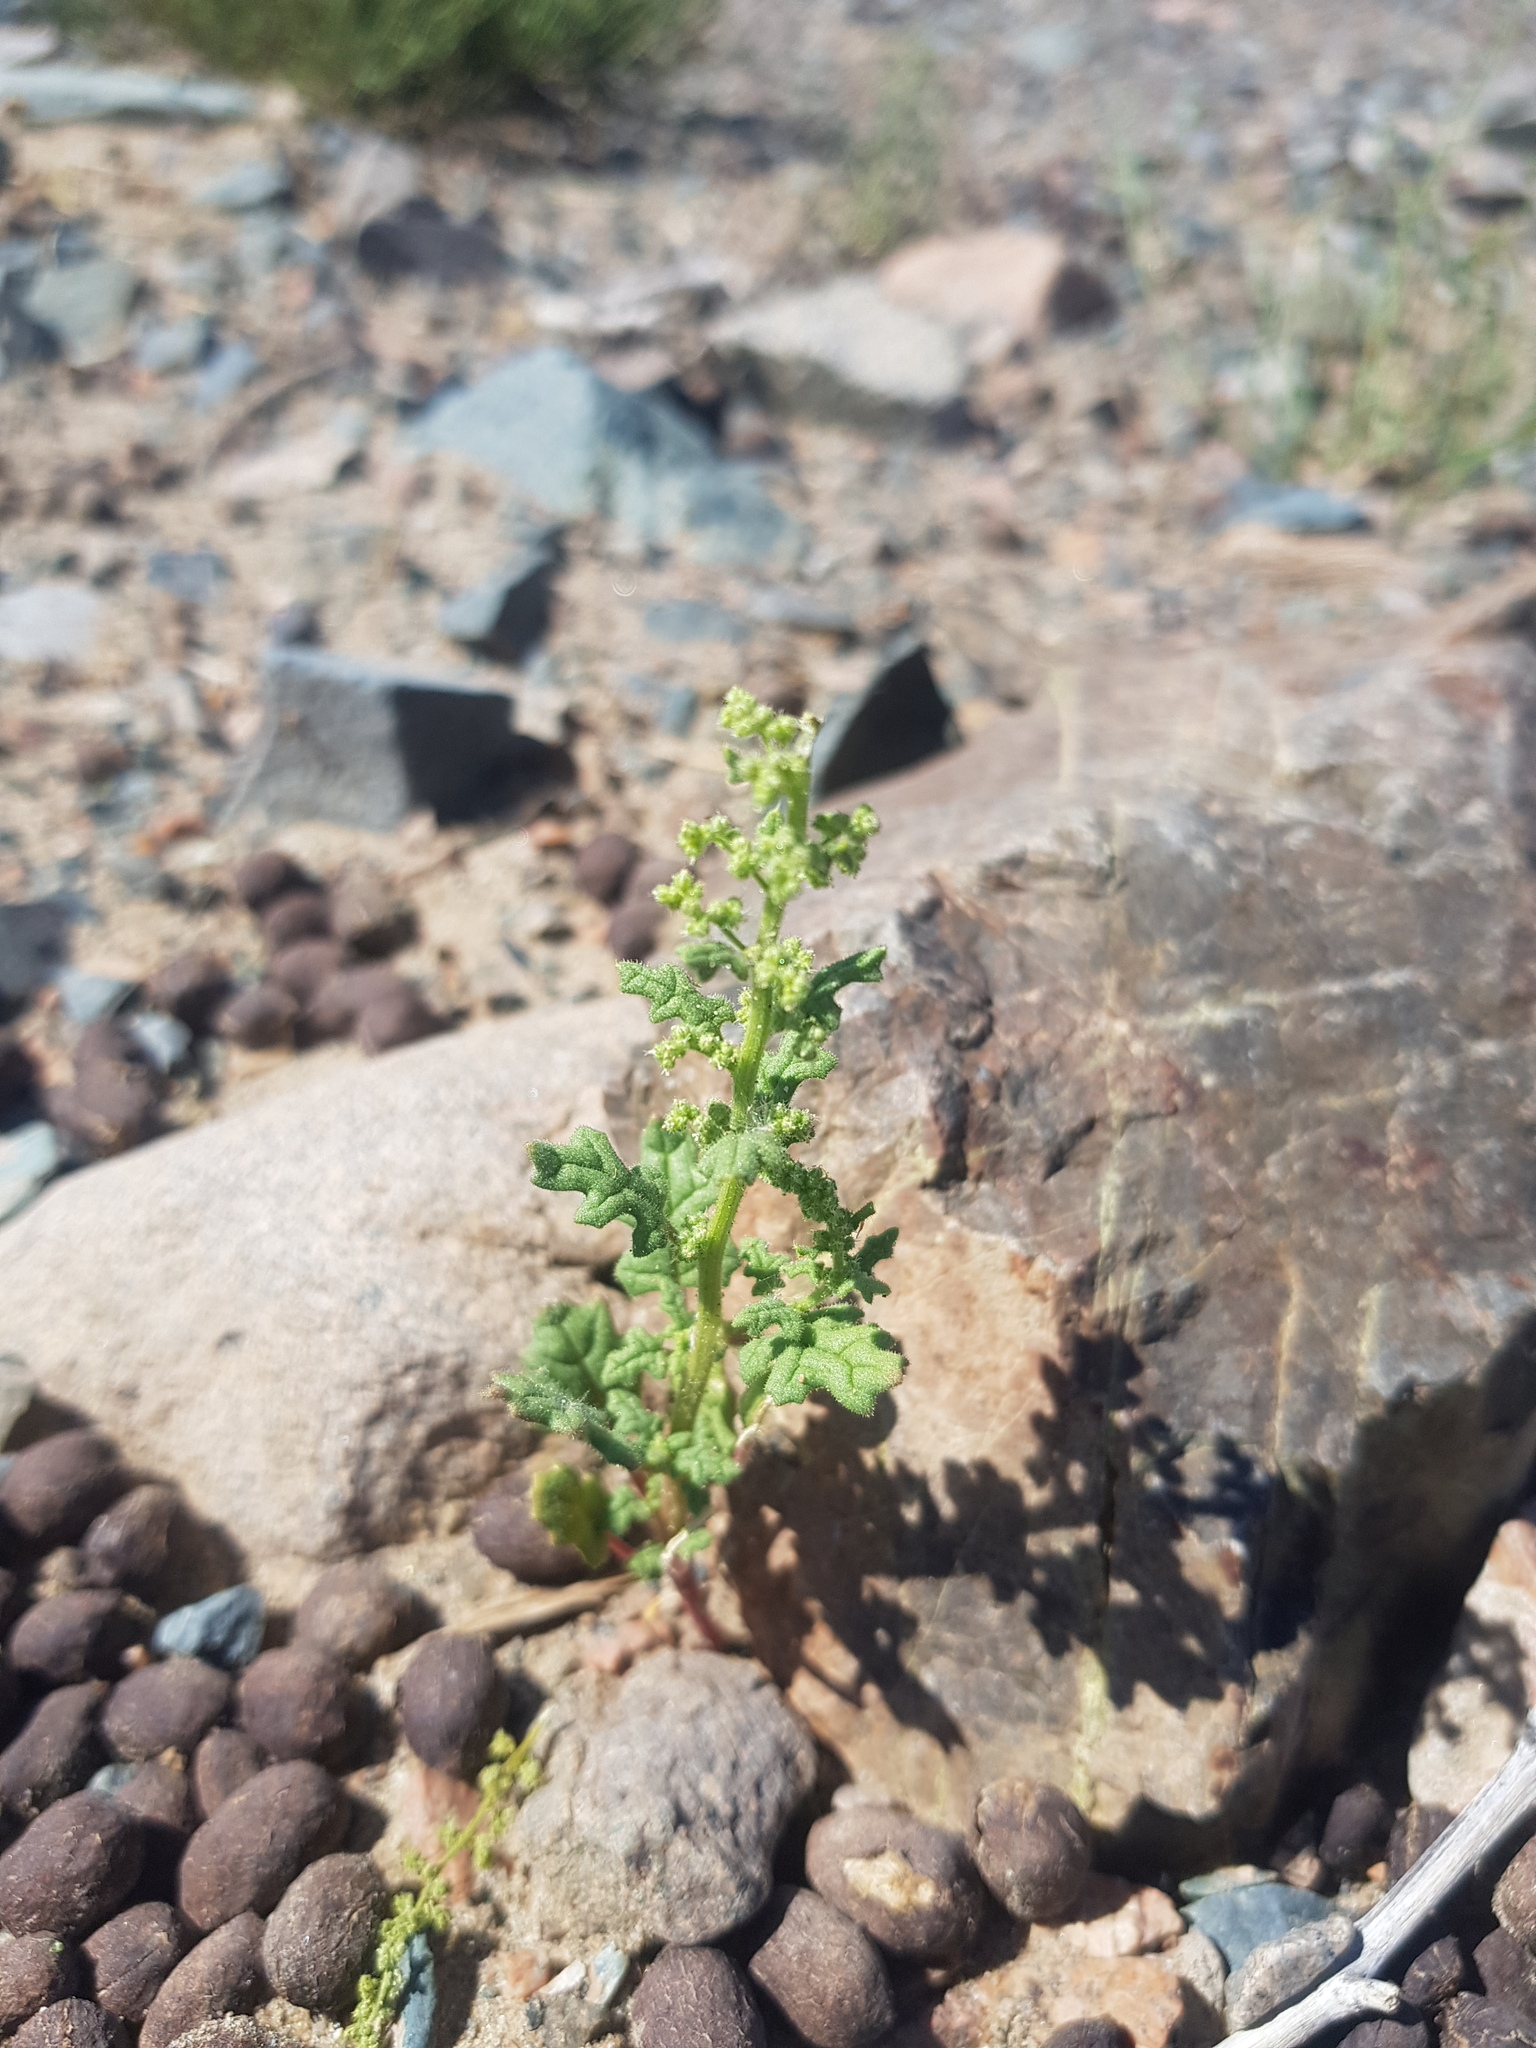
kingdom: Plantae
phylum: Tracheophyta
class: Magnoliopsida
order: Caryophyllales
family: Amaranthaceae
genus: Dysphania
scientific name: Dysphania botrys
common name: Feather-geranium
